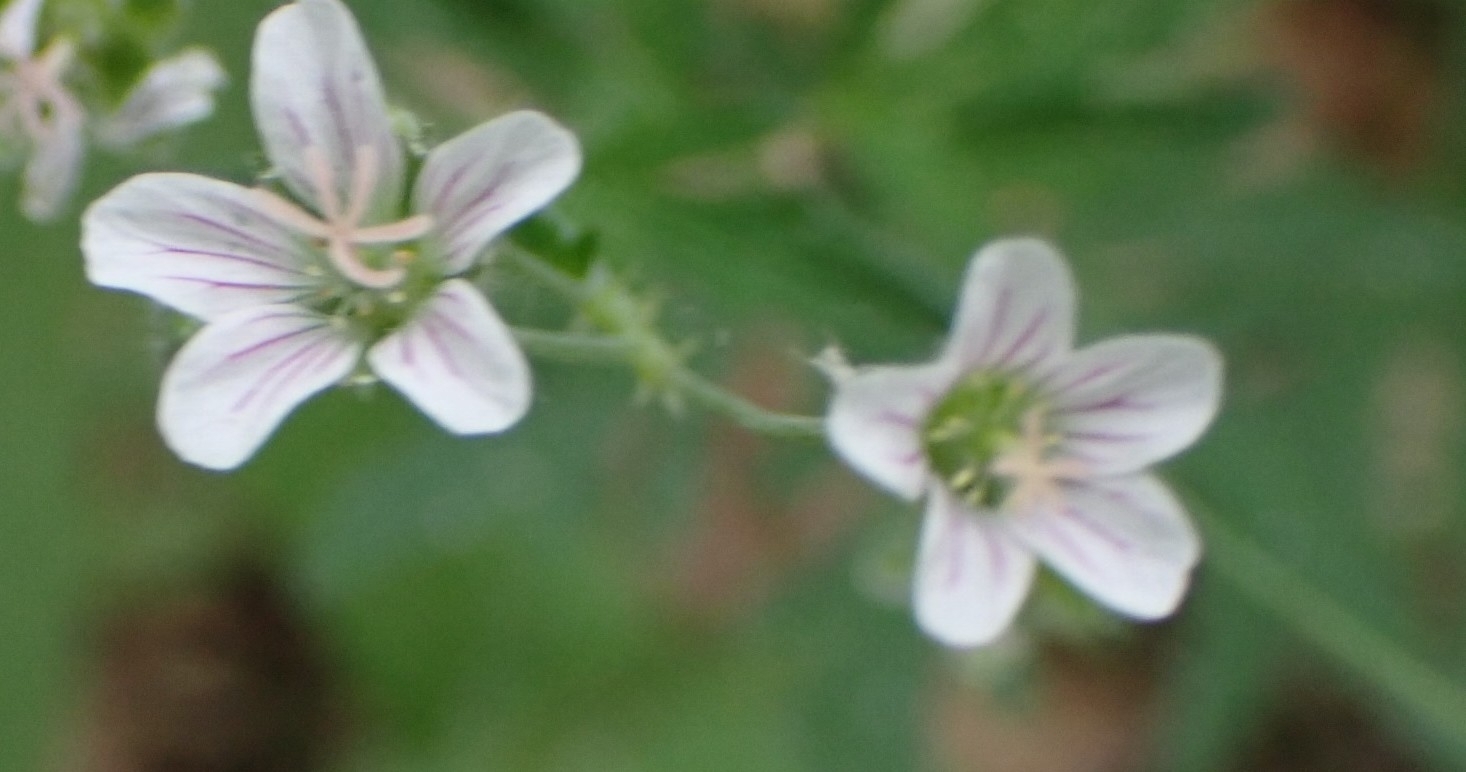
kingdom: Plantae
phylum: Tracheophyta
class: Magnoliopsida
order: Geraniales
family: Geraniaceae
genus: Geranium
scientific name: Geranium pseudosibiricum
